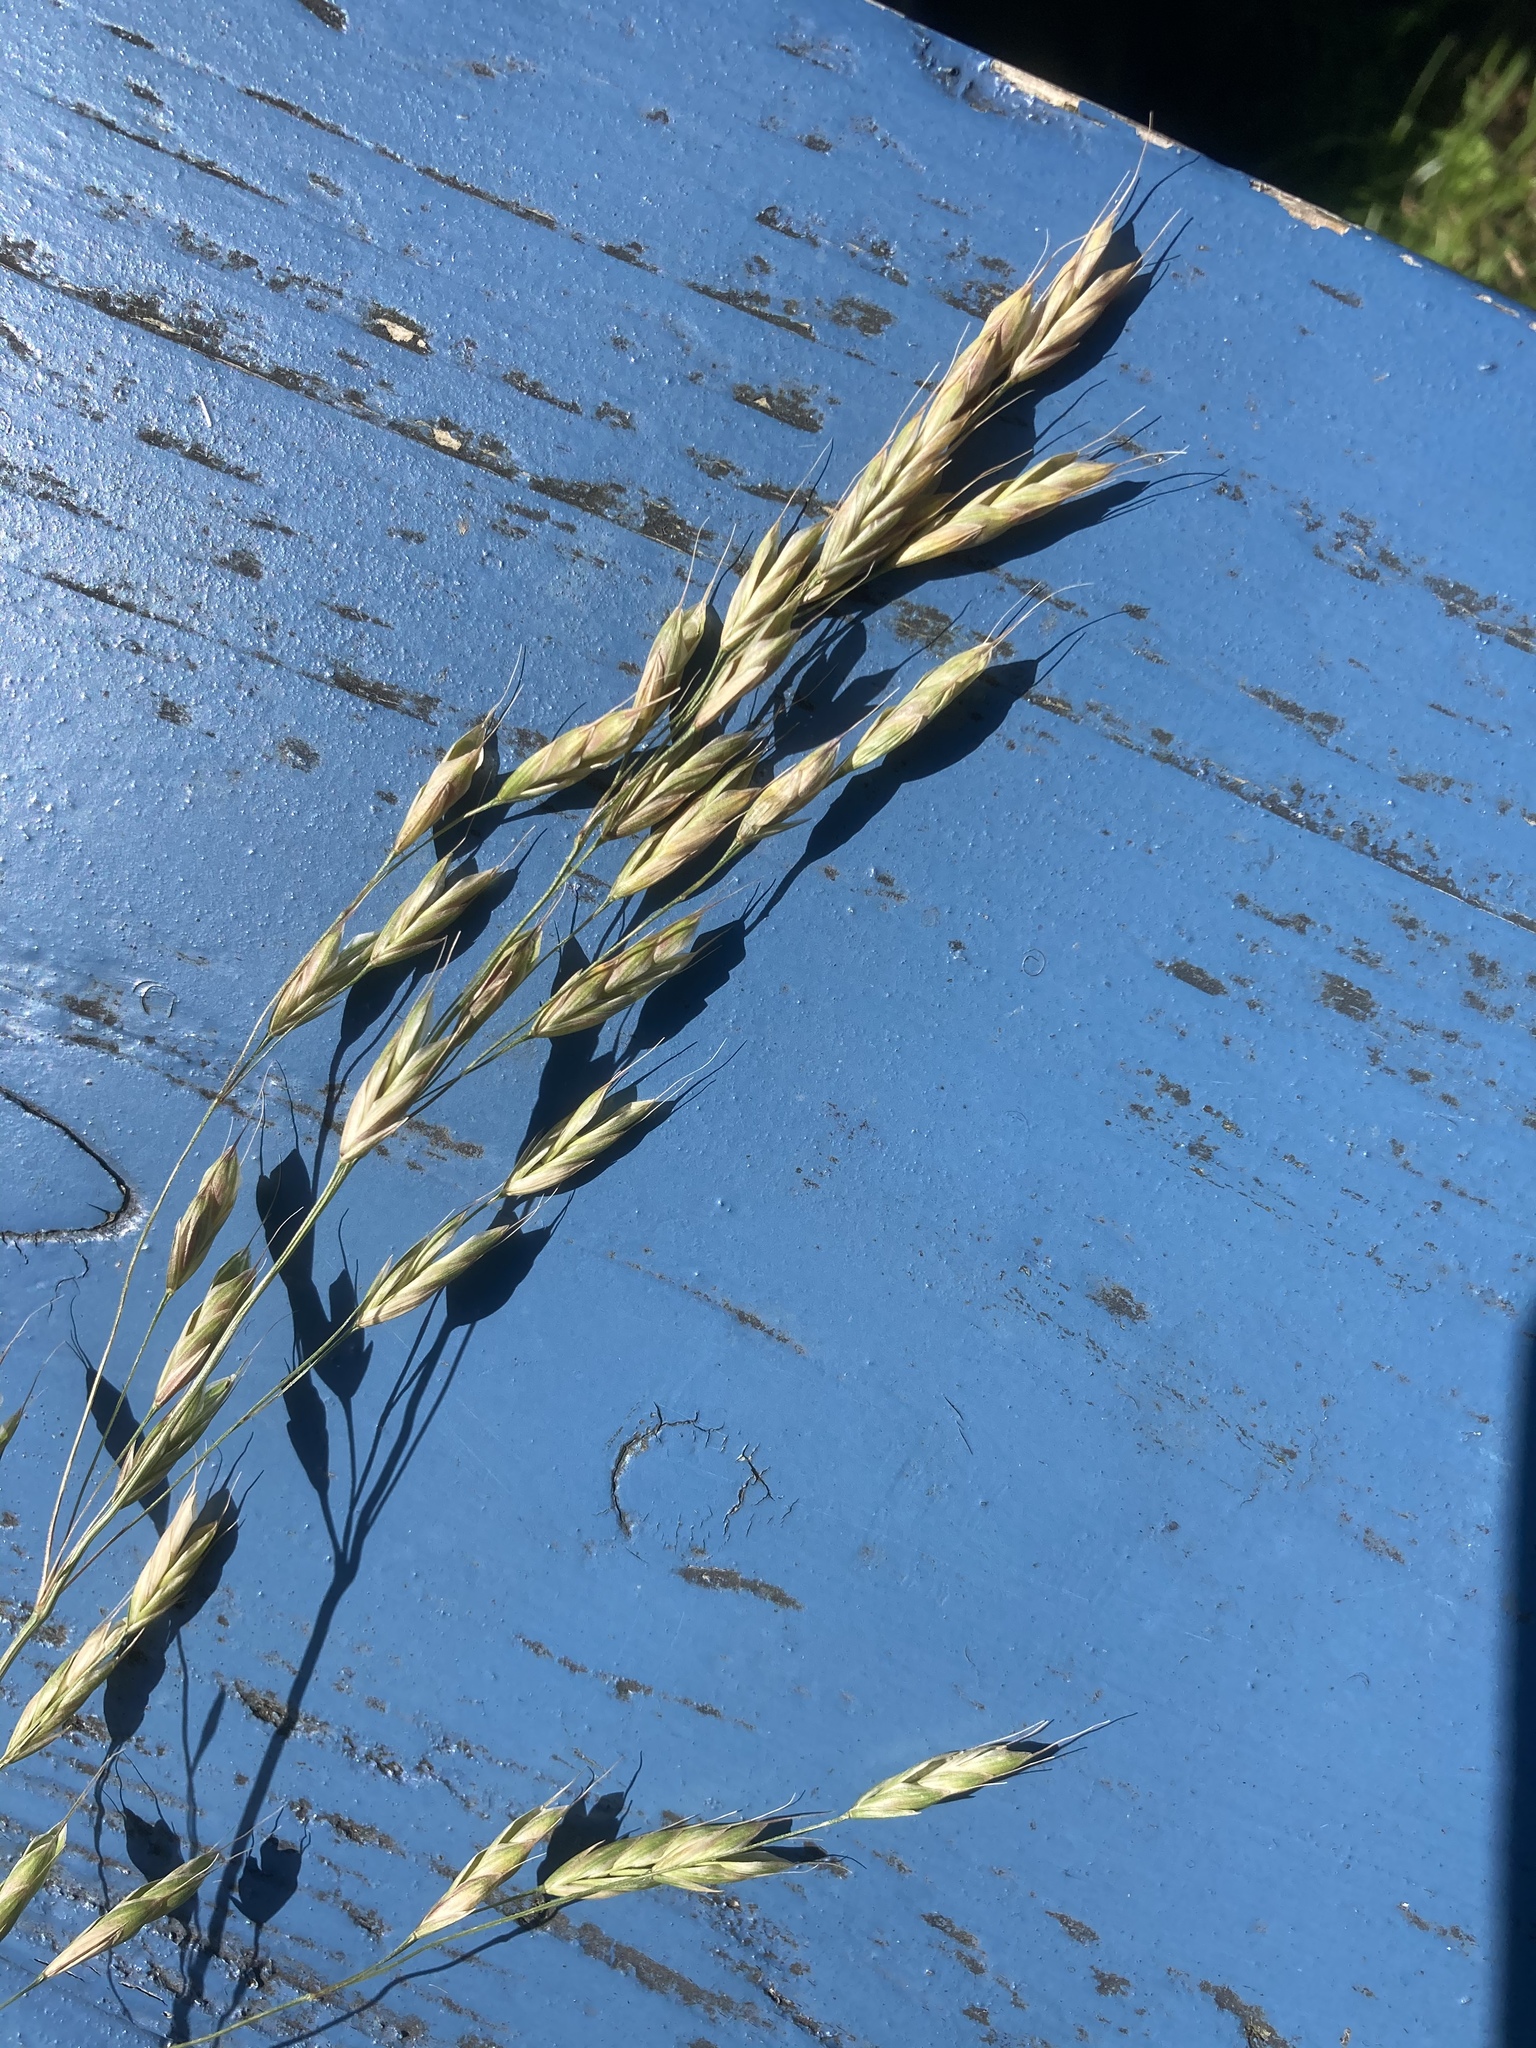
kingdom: Plantae
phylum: Tracheophyta
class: Liliopsida
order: Poales
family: Poaceae
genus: Bromus
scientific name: Bromus commutatus
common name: Meadow brome
